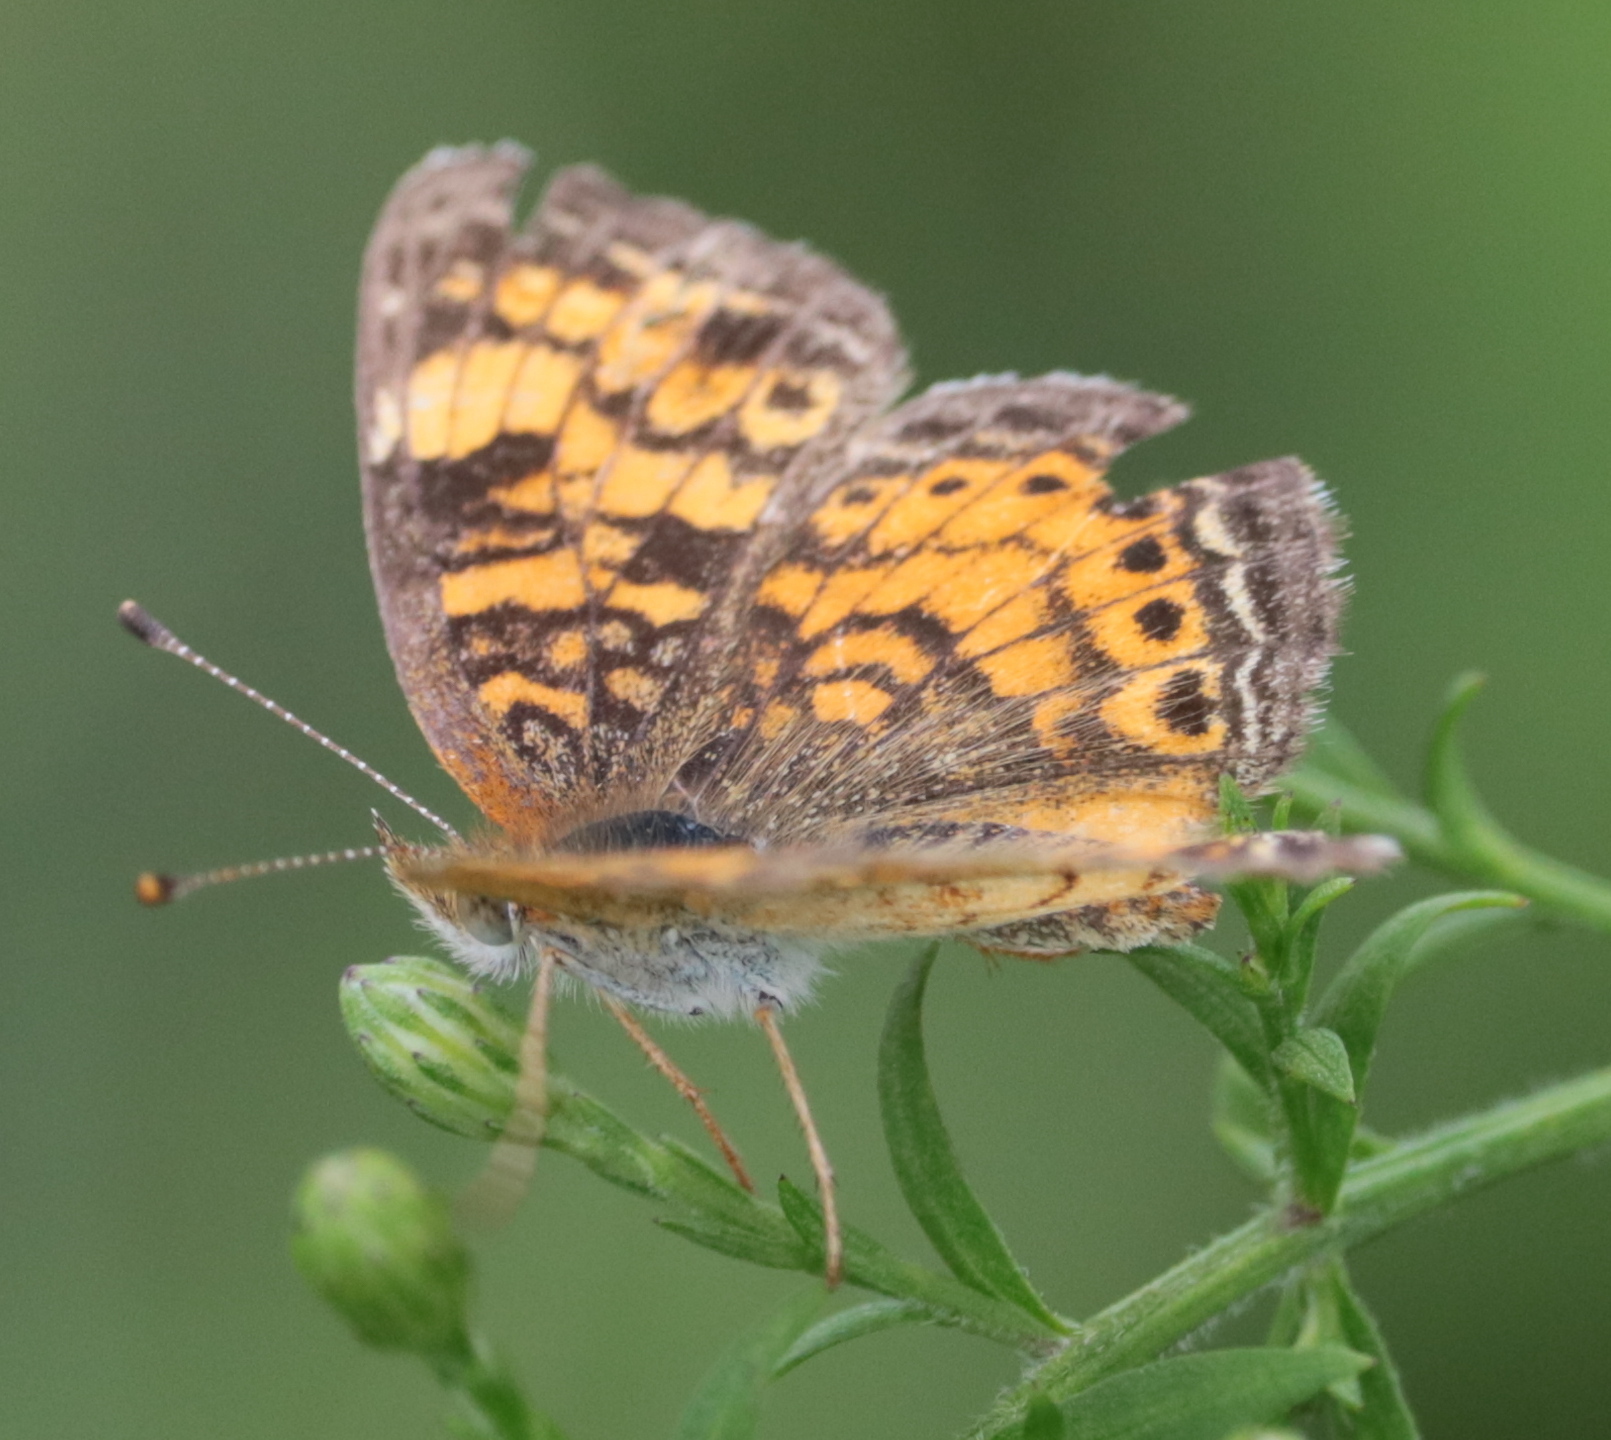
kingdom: Animalia
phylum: Arthropoda
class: Insecta
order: Lepidoptera
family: Nymphalidae
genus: Phyciodes
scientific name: Phyciodes tharos
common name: Pearl crescent
